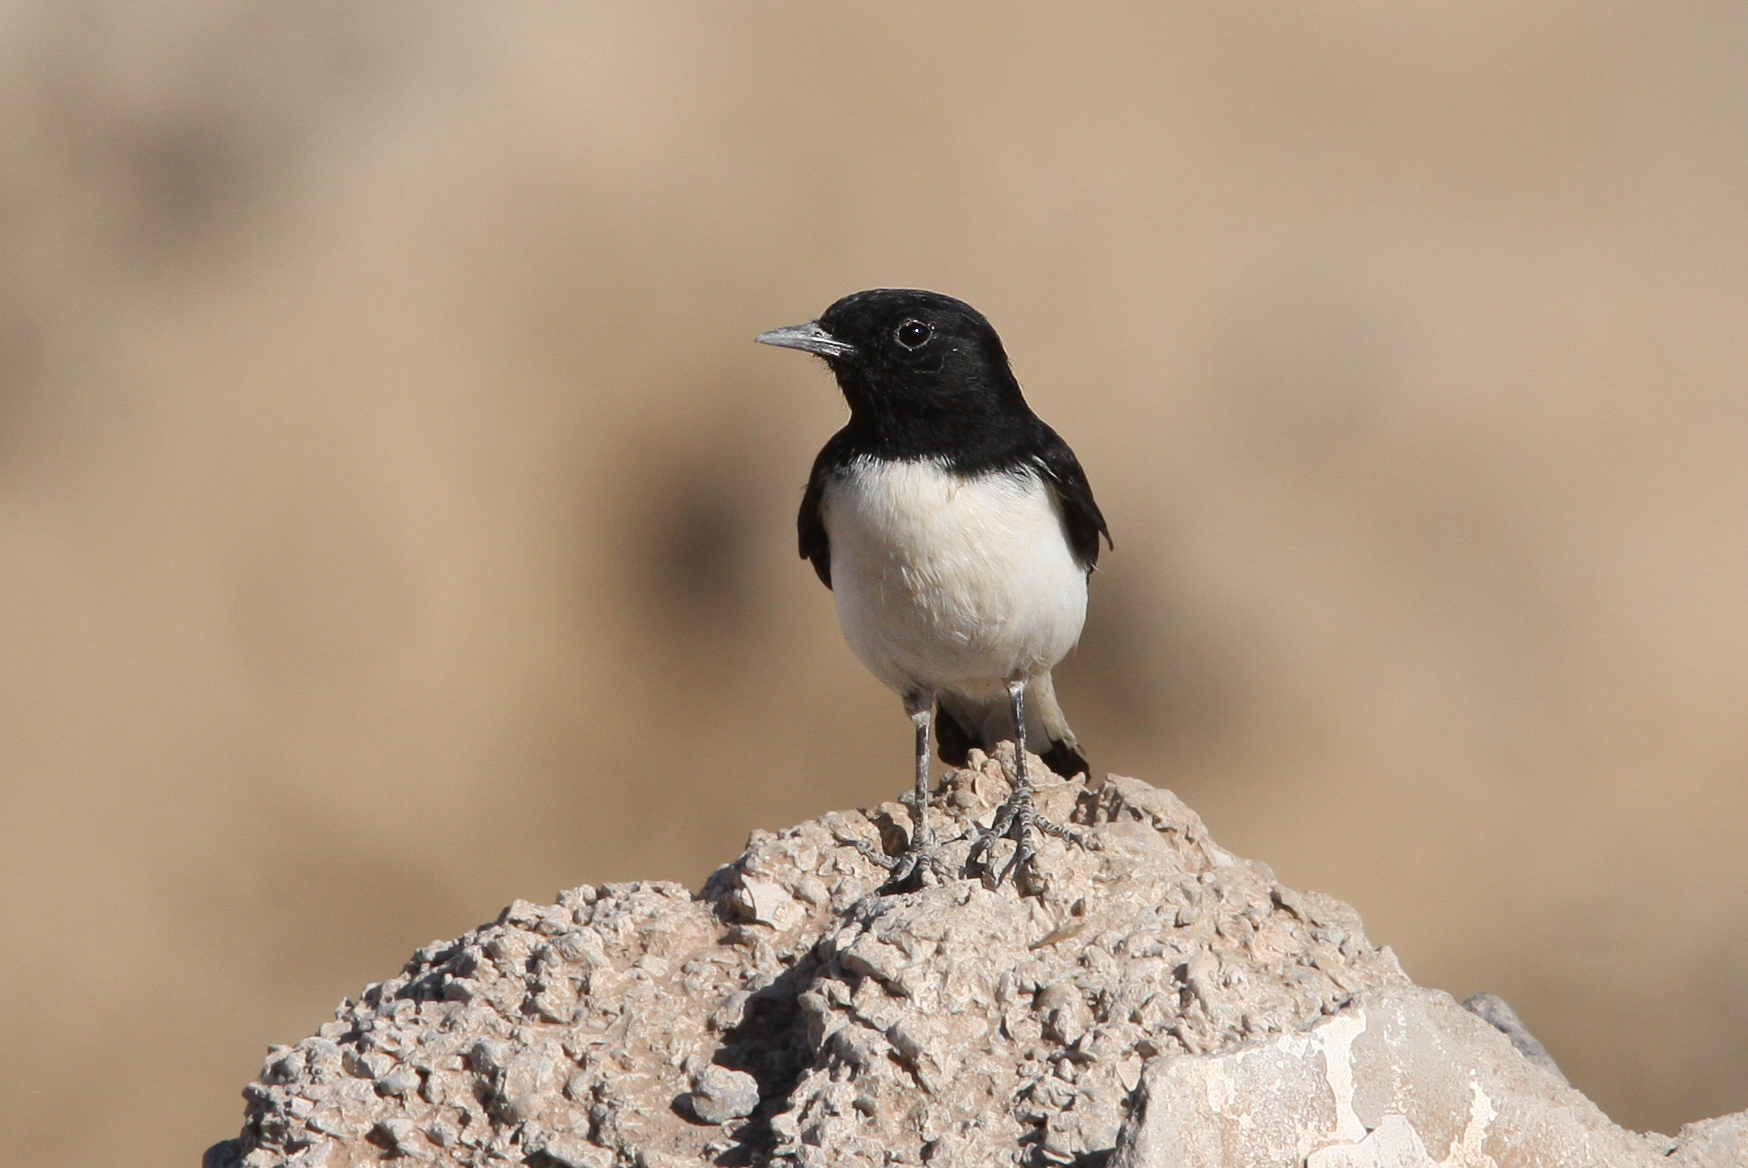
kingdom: Animalia
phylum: Chordata
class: Aves
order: Passeriformes
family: Muscicapidae
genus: Oenanthe
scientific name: Oenanthe albonigra
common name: Hume's wheatear
